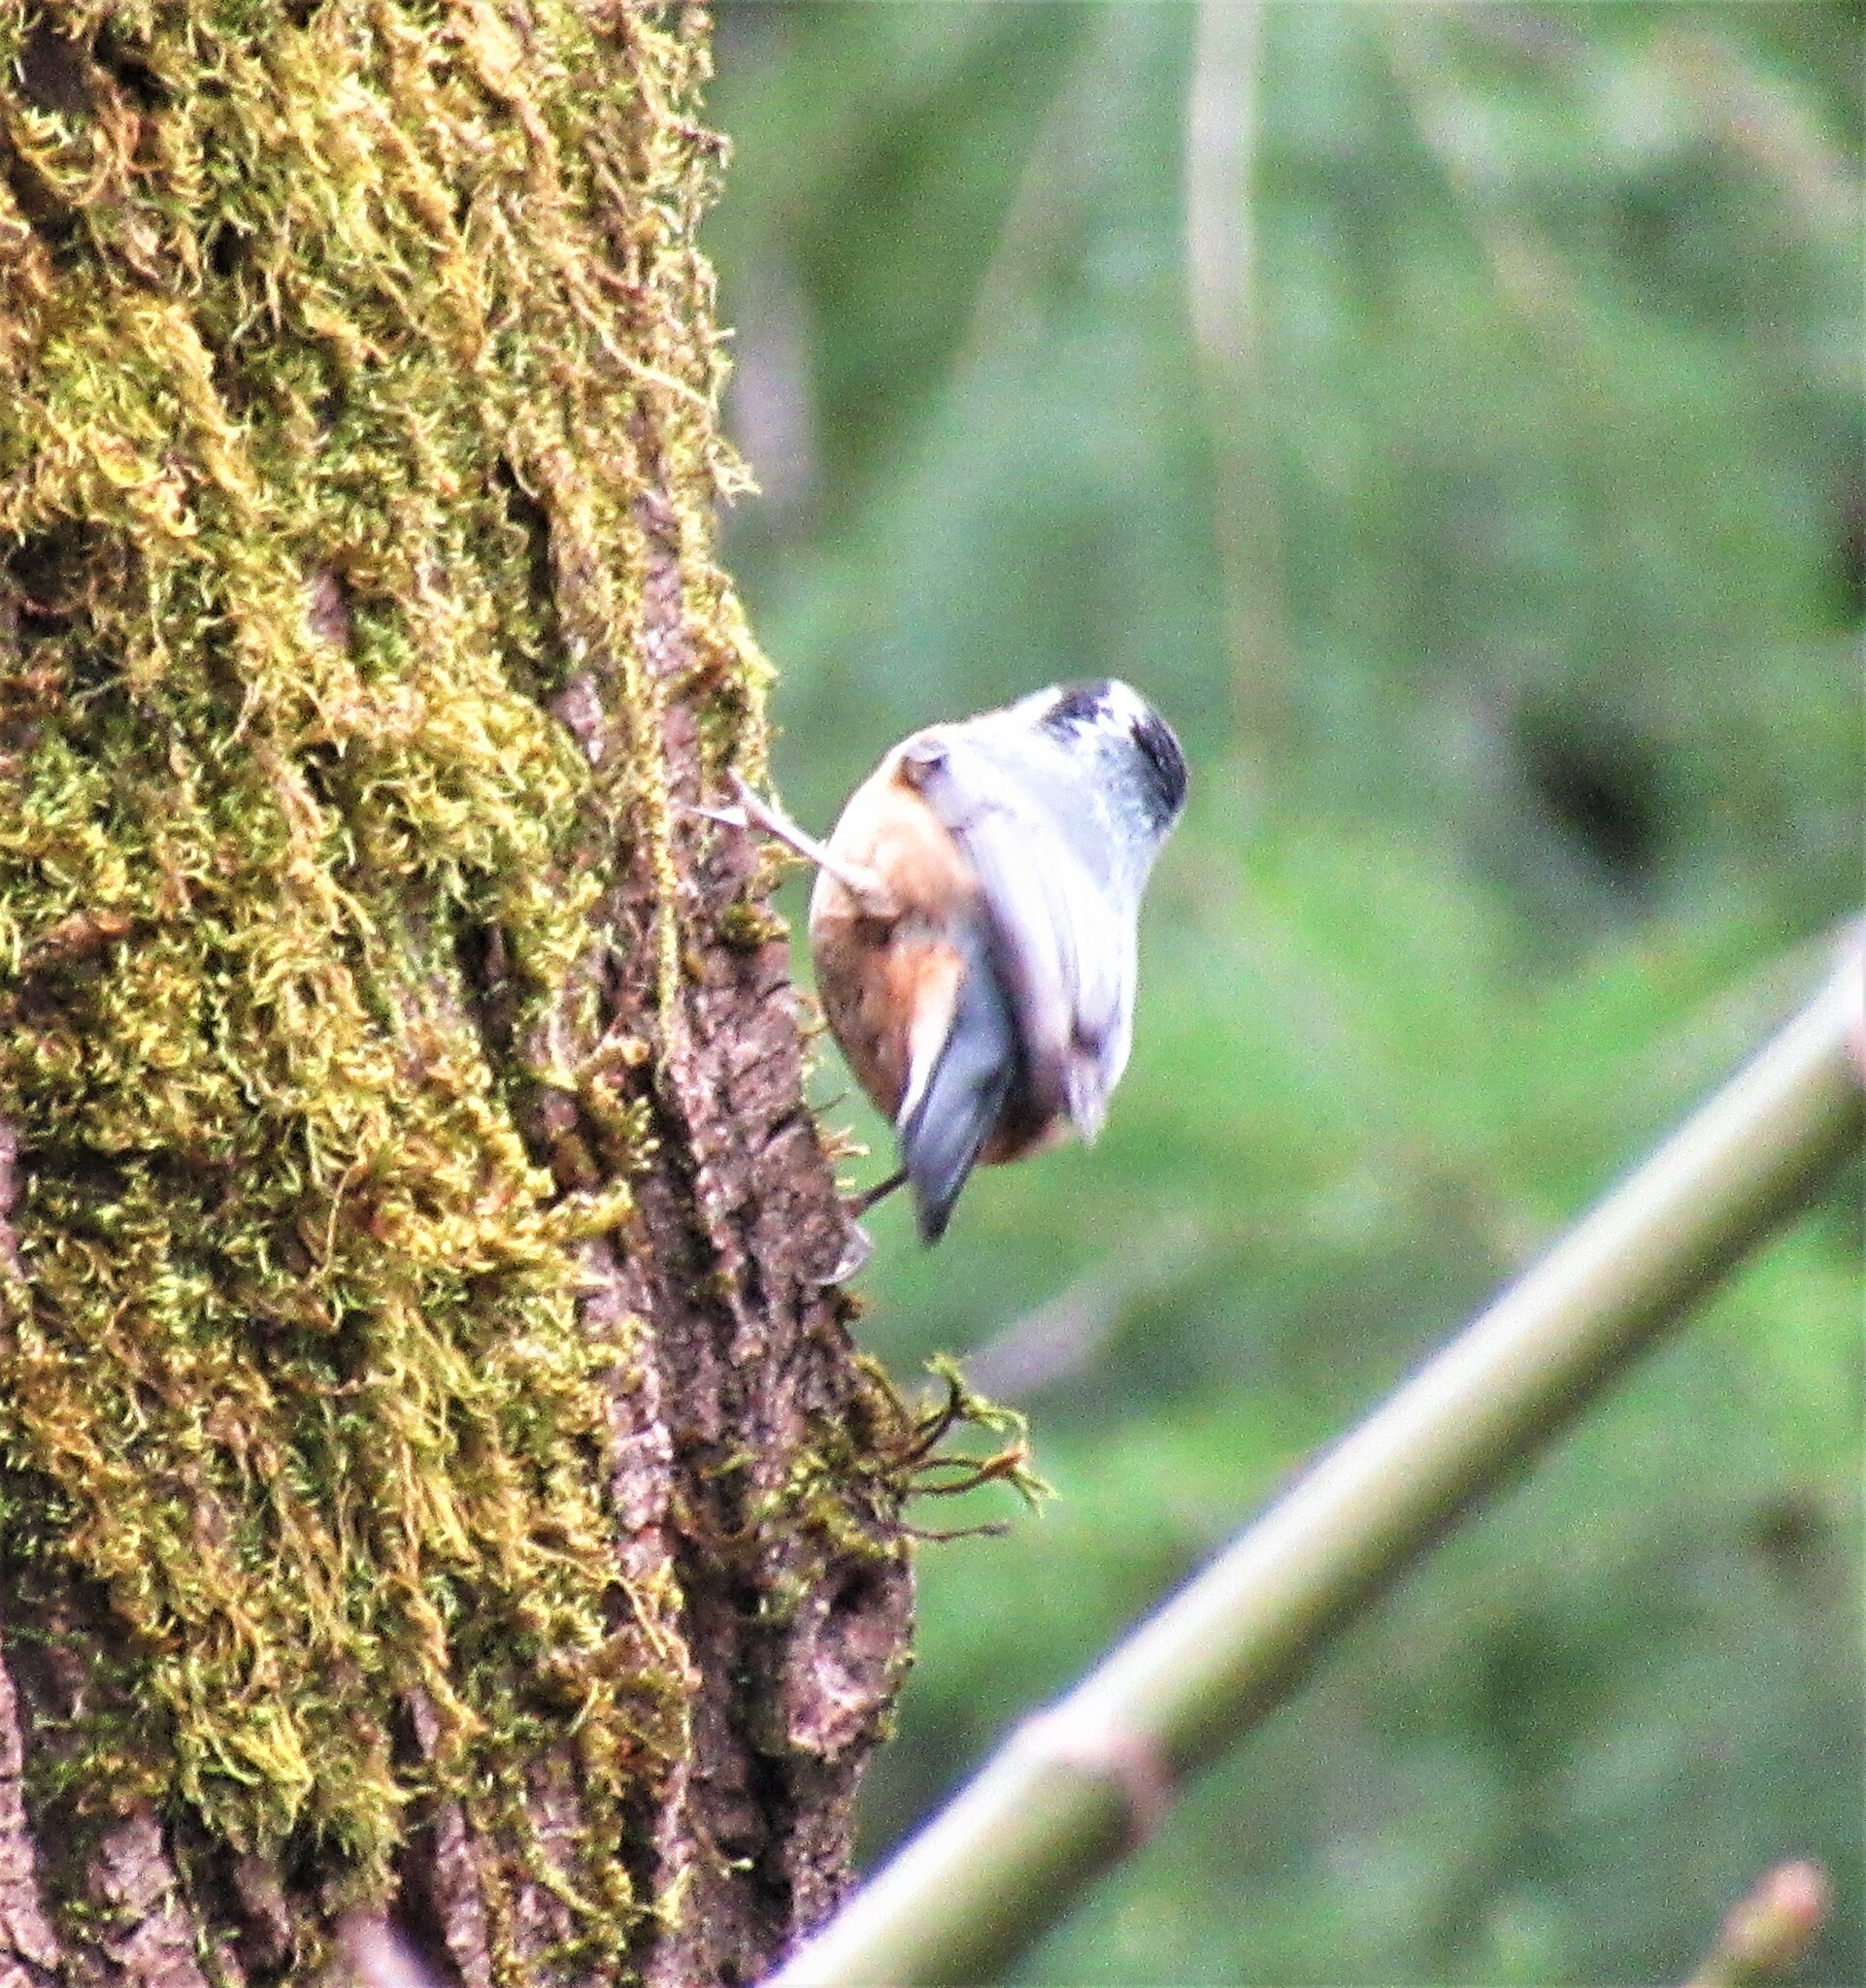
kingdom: Animalia
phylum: Chordata
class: Aves
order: Passeriformes
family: Sittidae
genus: Sitta
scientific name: Sitta canadensis
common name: Red-breasted nuthatch
